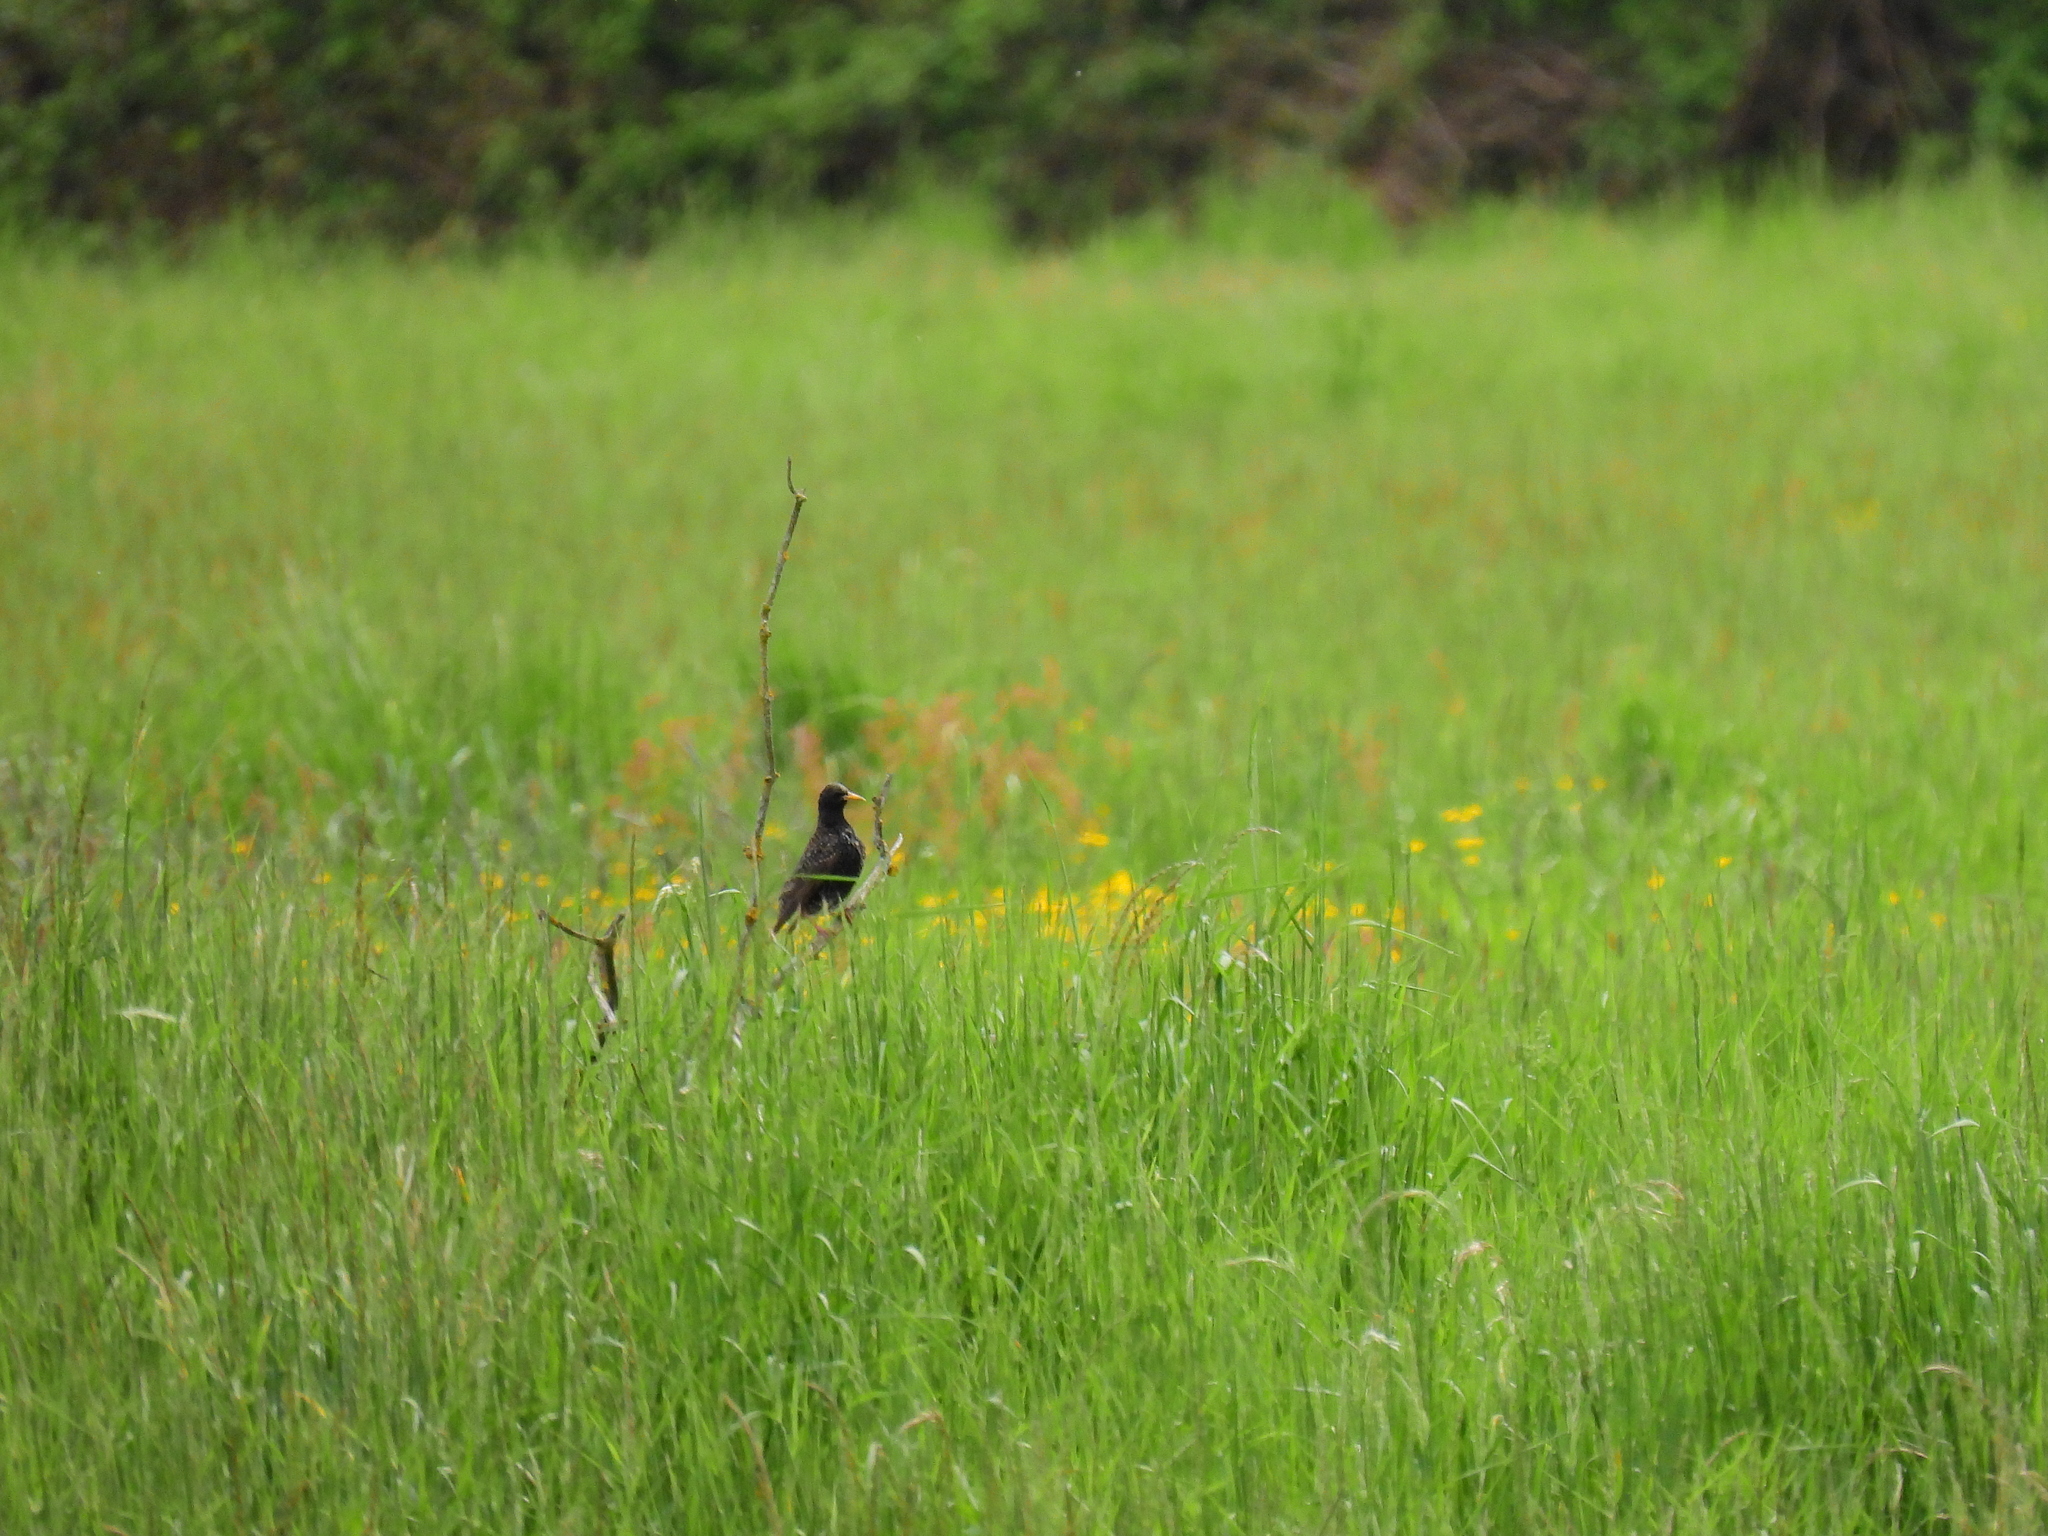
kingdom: Animalia
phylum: Chordata
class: Aves
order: Passeriformes
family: Sturnidae
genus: Sturnus
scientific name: Sturnus vulgaris
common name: Common starling
